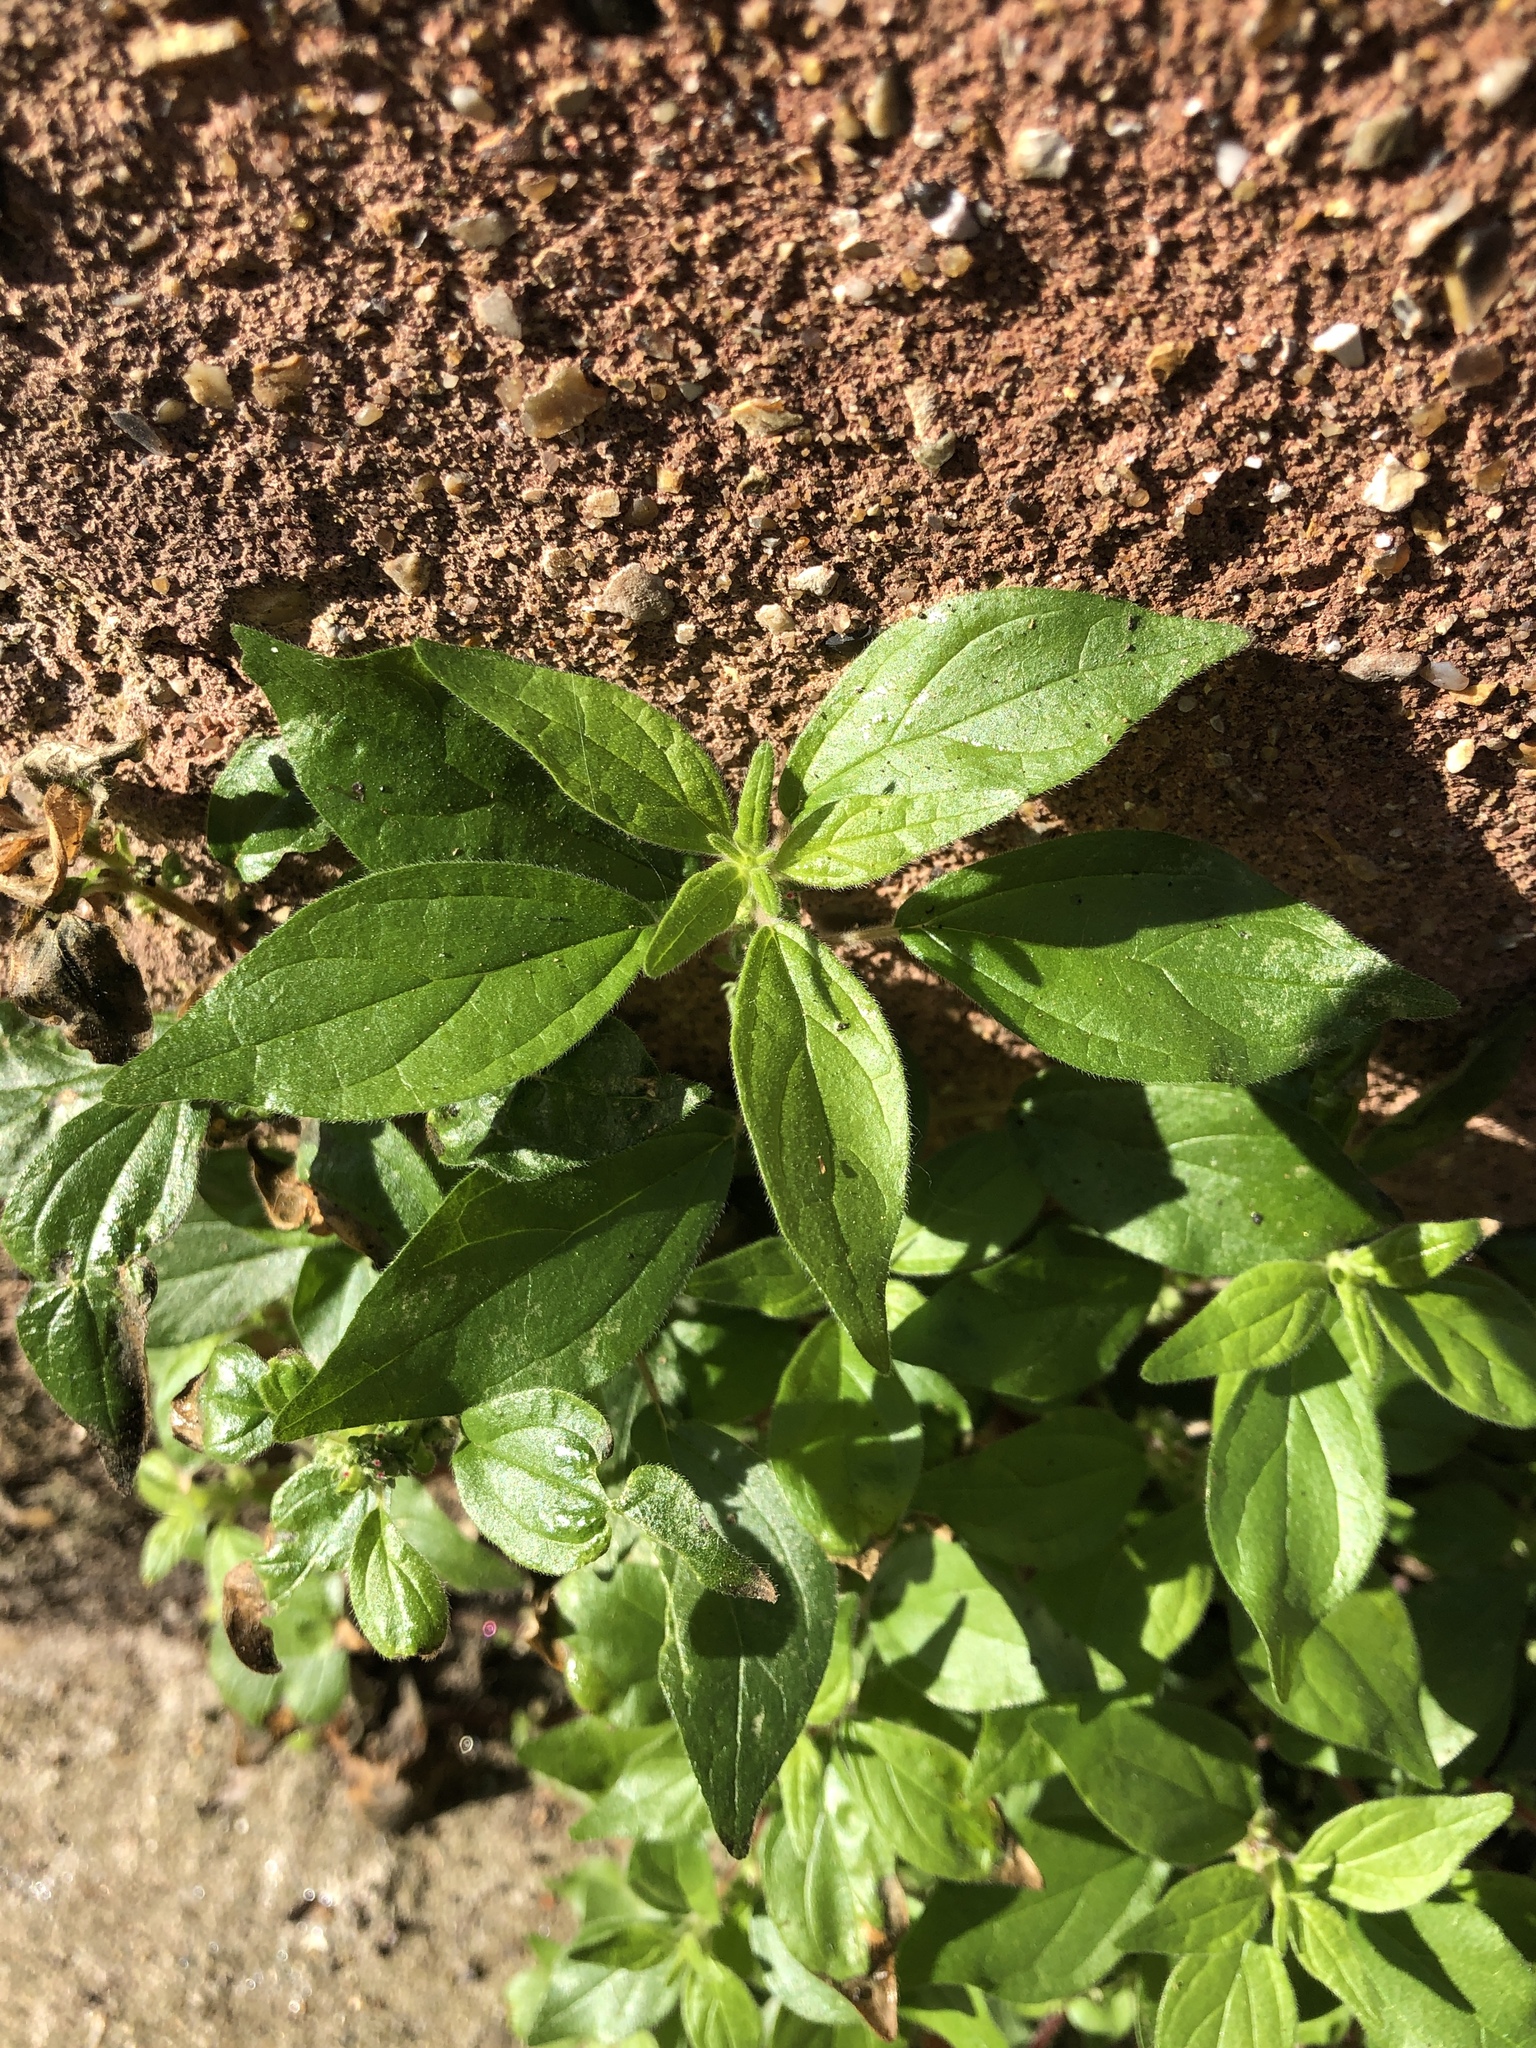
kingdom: Plantae
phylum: Tracheophyta
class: Magnoliopsida
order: Rosales
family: Urticaceae
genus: Parietaria
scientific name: Parietaria judaica
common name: Pellitory-of-the-wall
